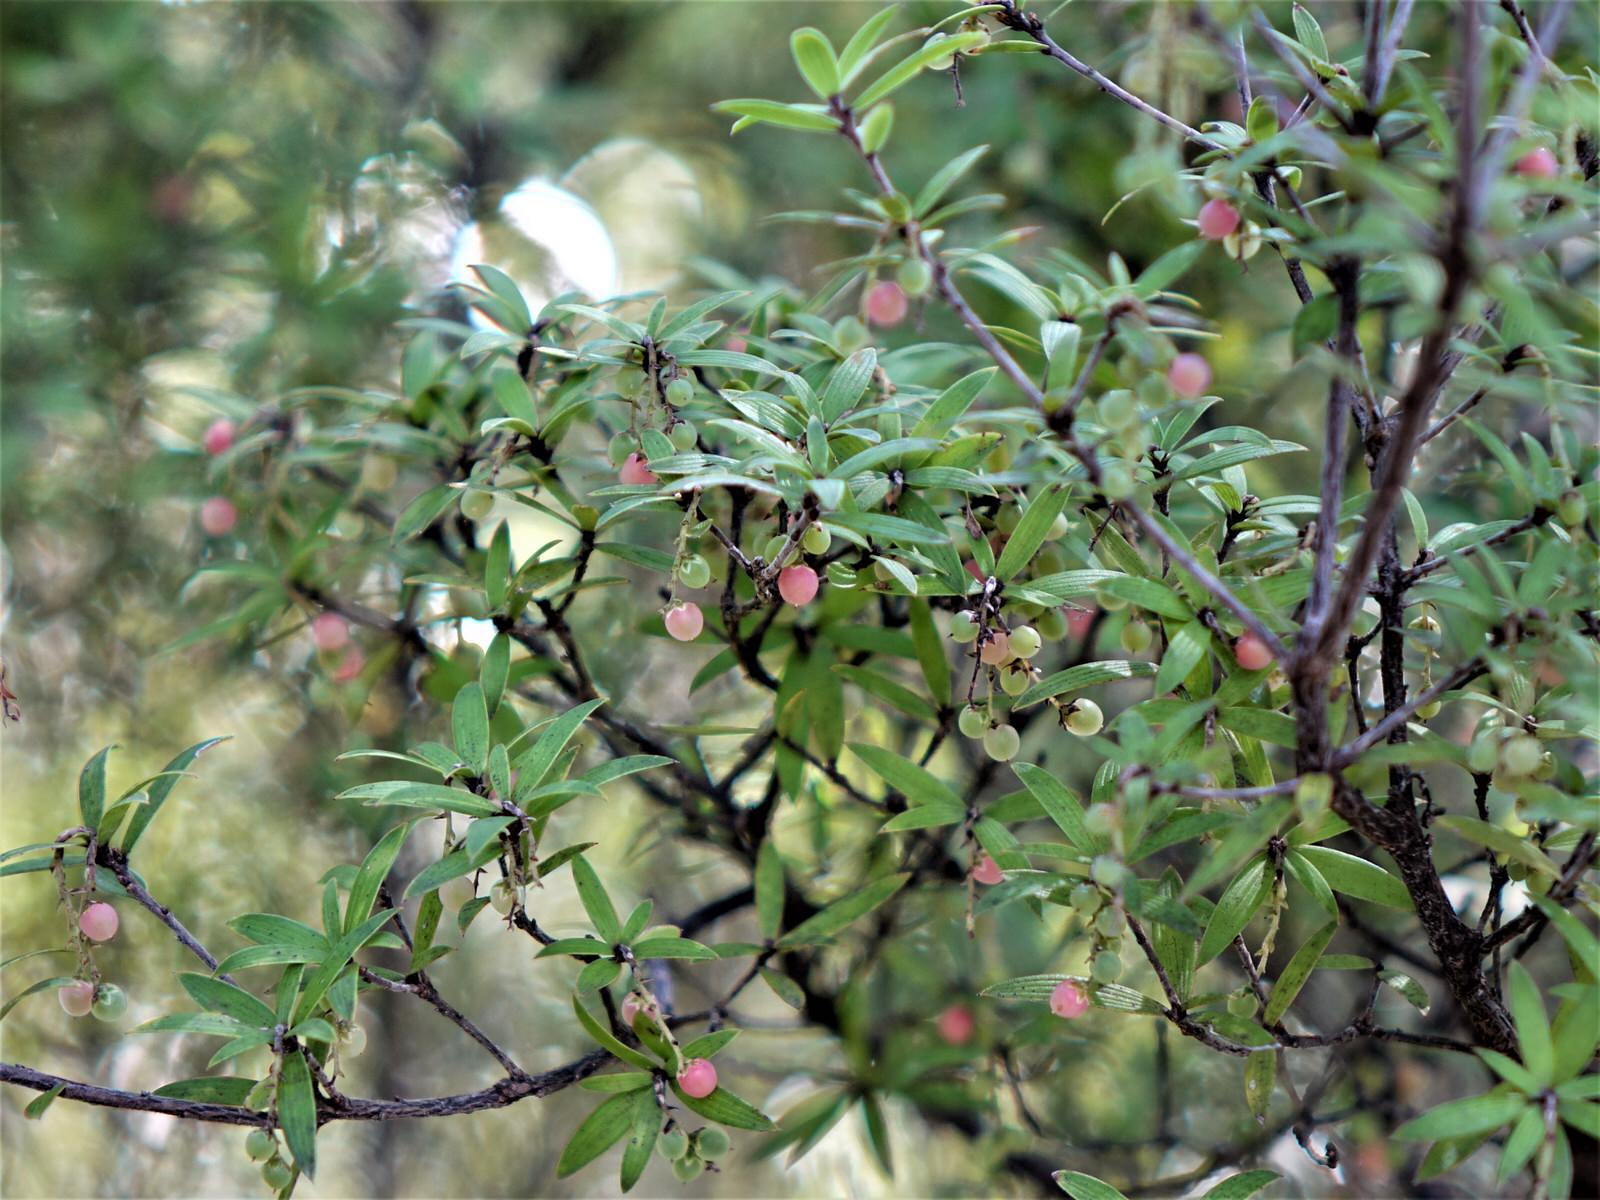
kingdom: Plantae
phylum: Tracheophyta
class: Magnoliopsida
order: Ericales
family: Ericaceae
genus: Leucopogon
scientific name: Leucopogon fasciculatus
